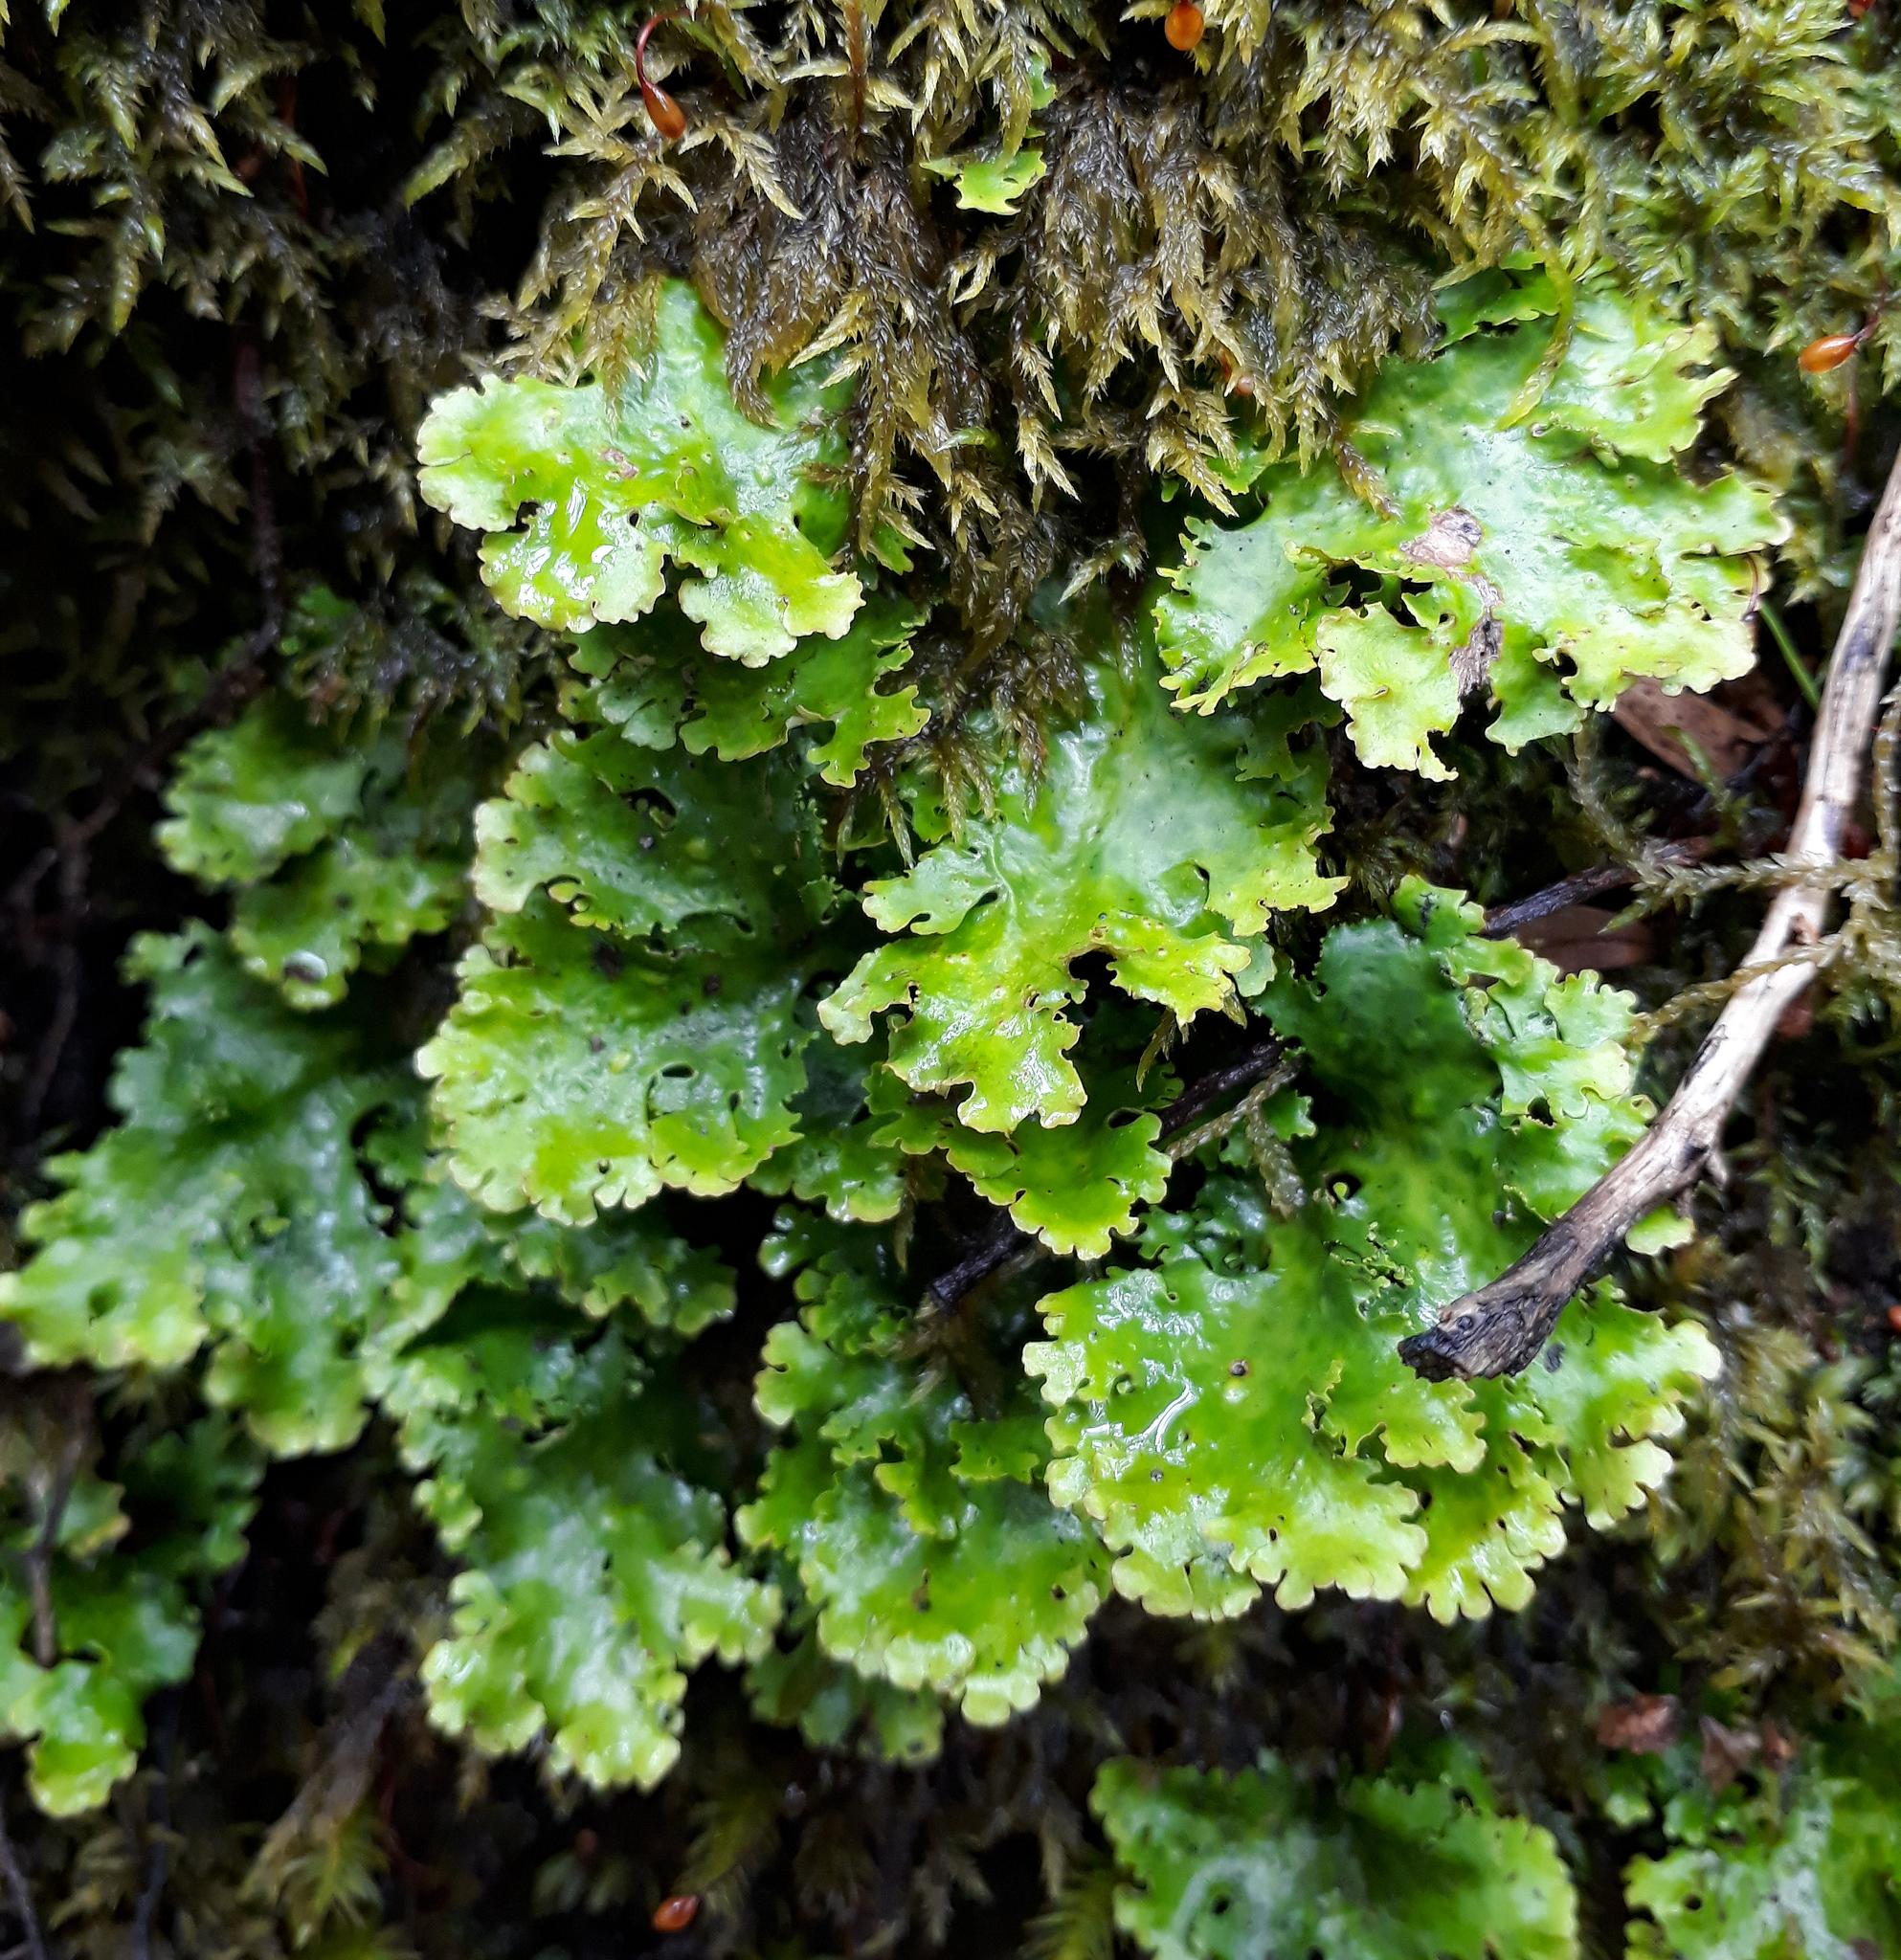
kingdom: Fungi
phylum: Ascomycota
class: Lecanoromycetes
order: Peltigerales
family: Lobariaceae
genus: Sticta
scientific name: Sticta filix
